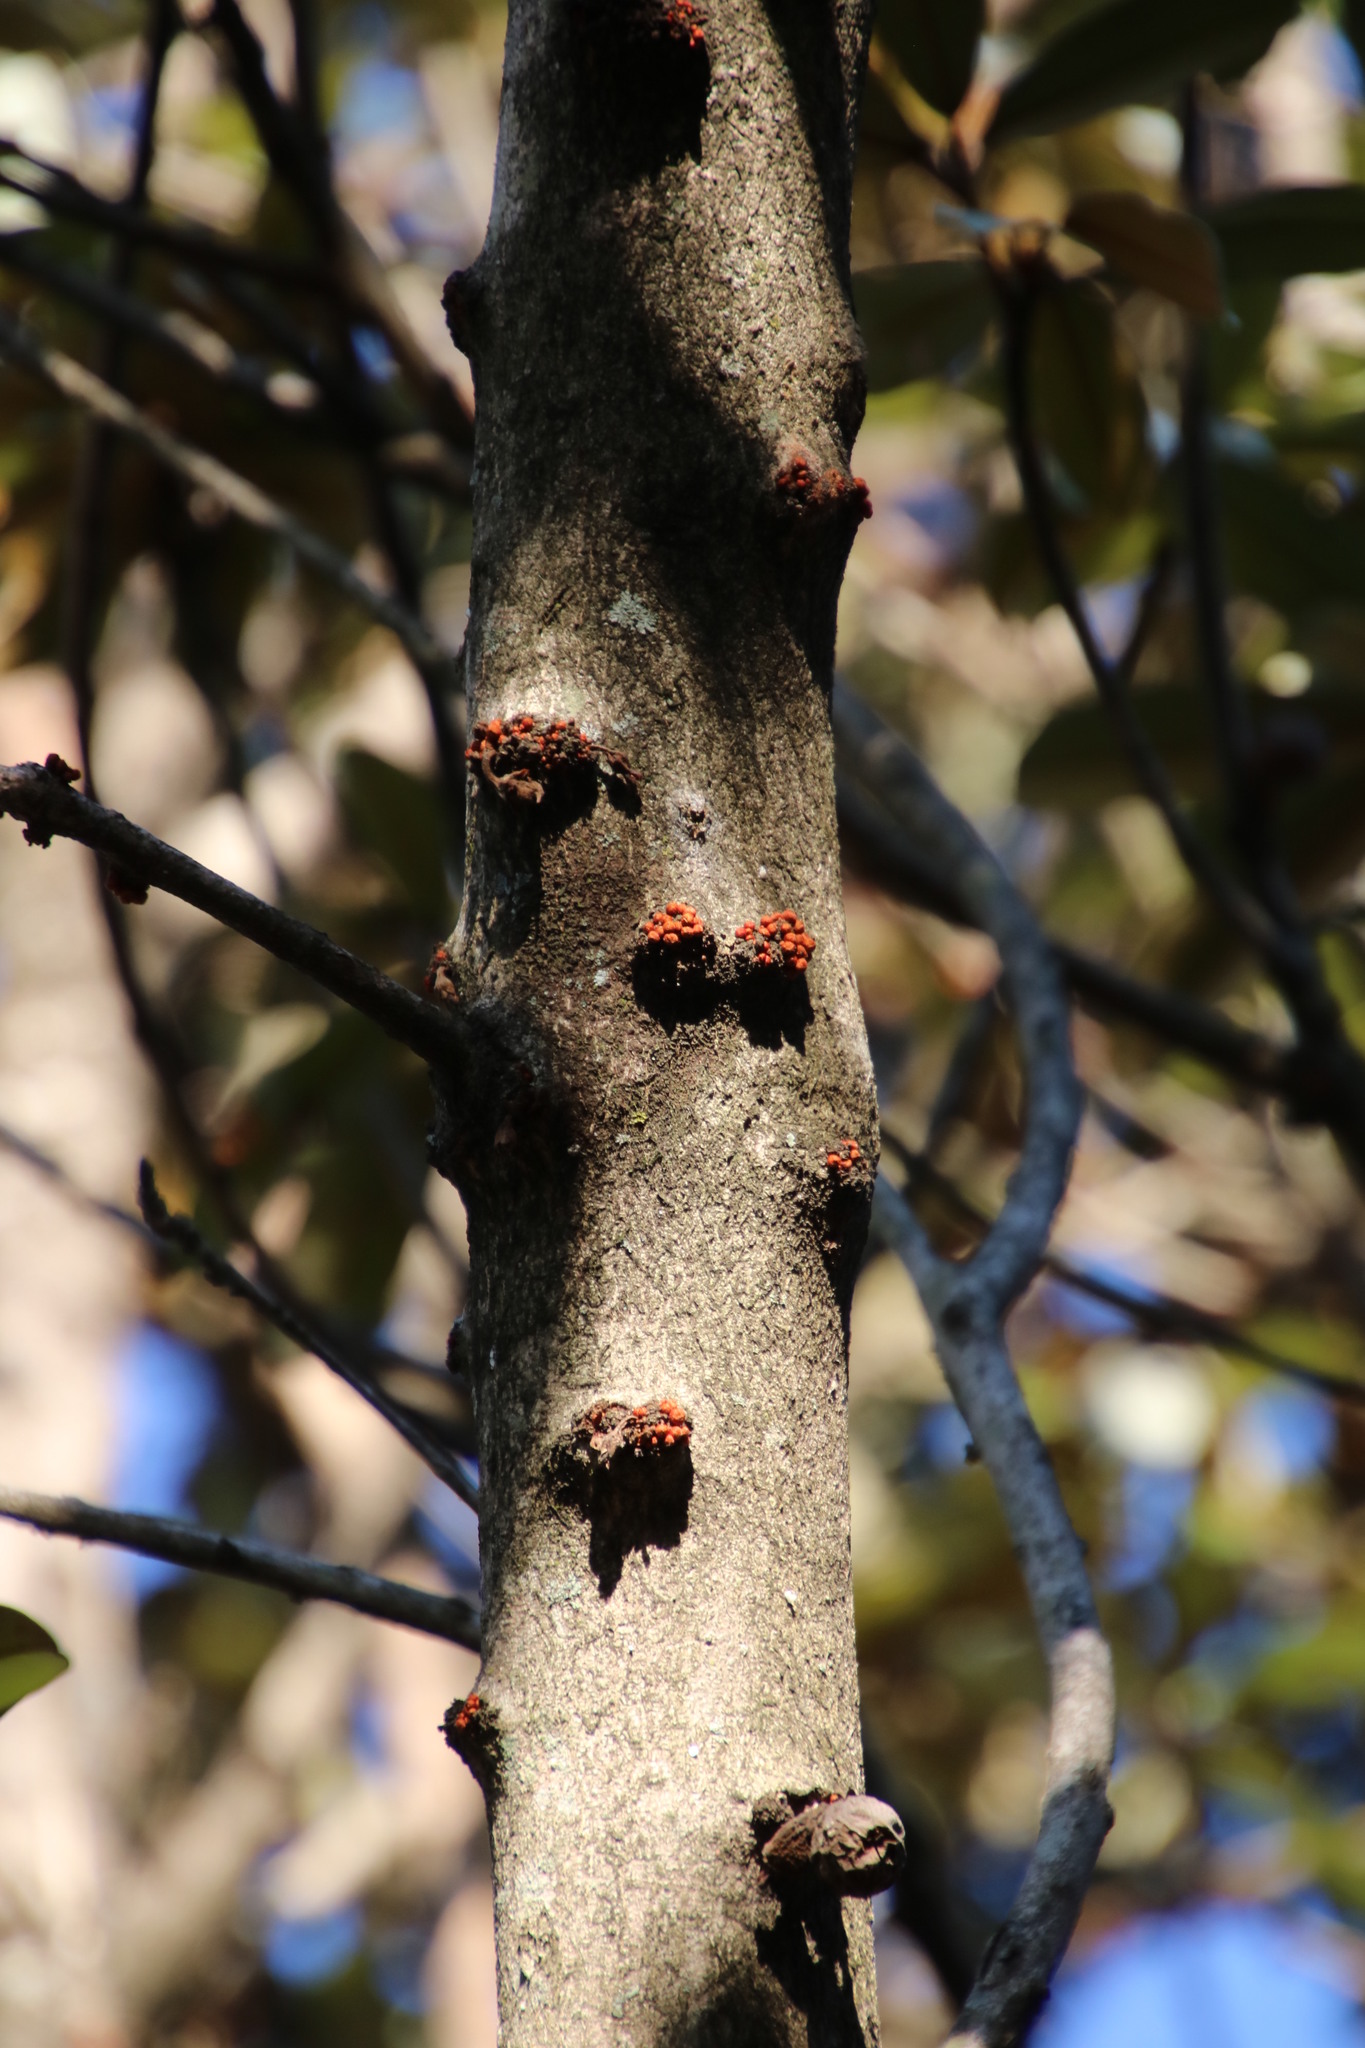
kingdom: Plantae
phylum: Tracheophyta
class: Magnoliopsida
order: Ericales
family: Sapotaceae
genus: Englerophytum
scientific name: Englerophytum magalismontanum
